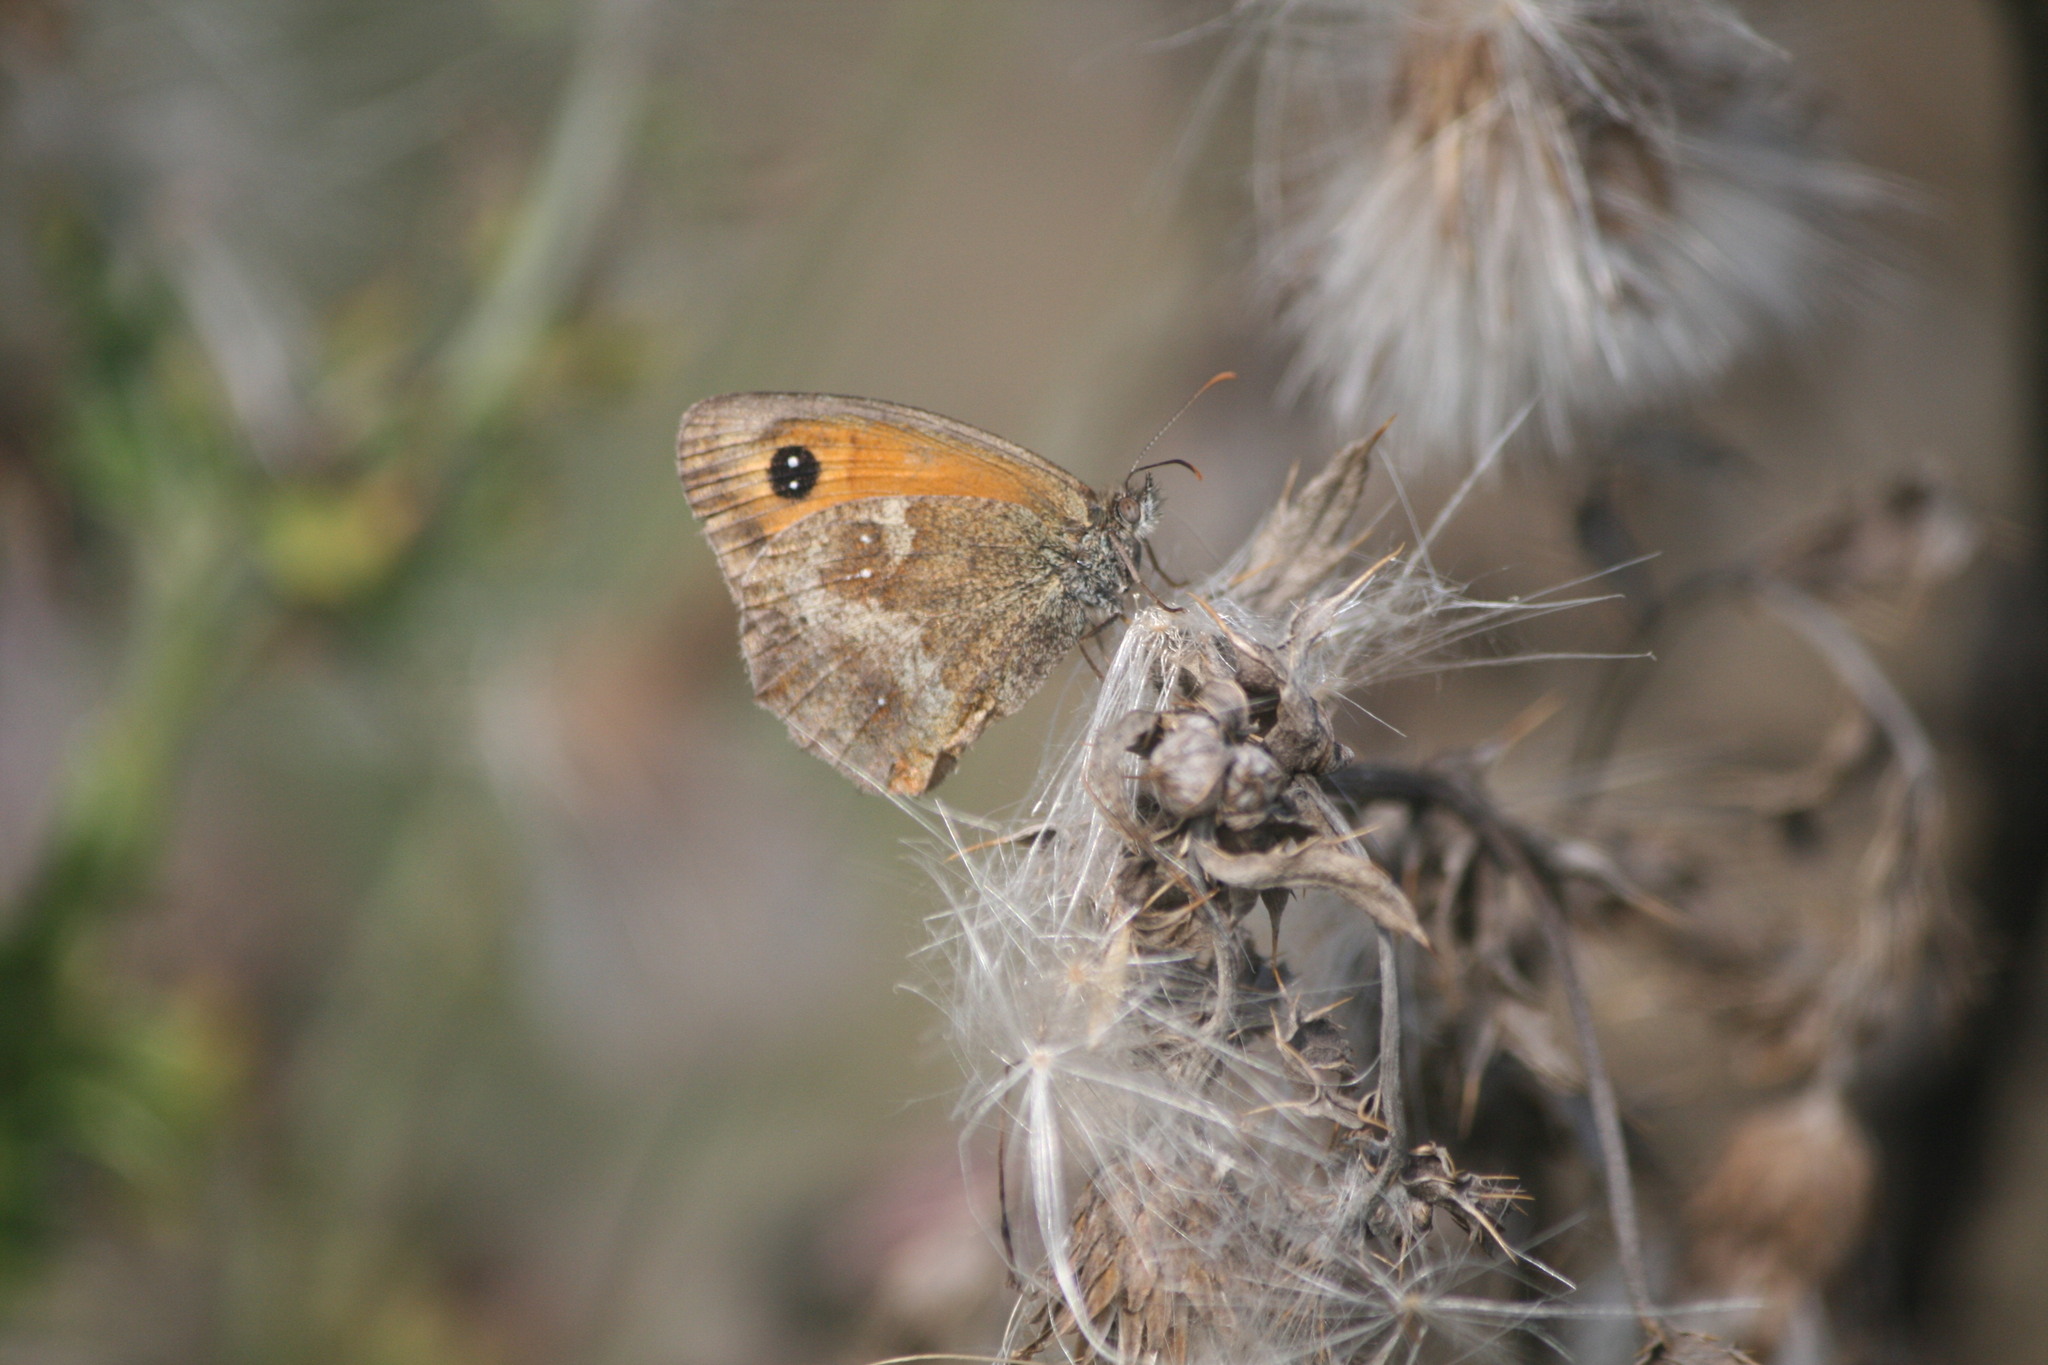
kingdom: Animalia
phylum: Arthropoda
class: Insecta
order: Lepidoptera
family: Nymphalidae
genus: Pyronia
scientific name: Pyronia tithonus
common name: Gatekeeper
